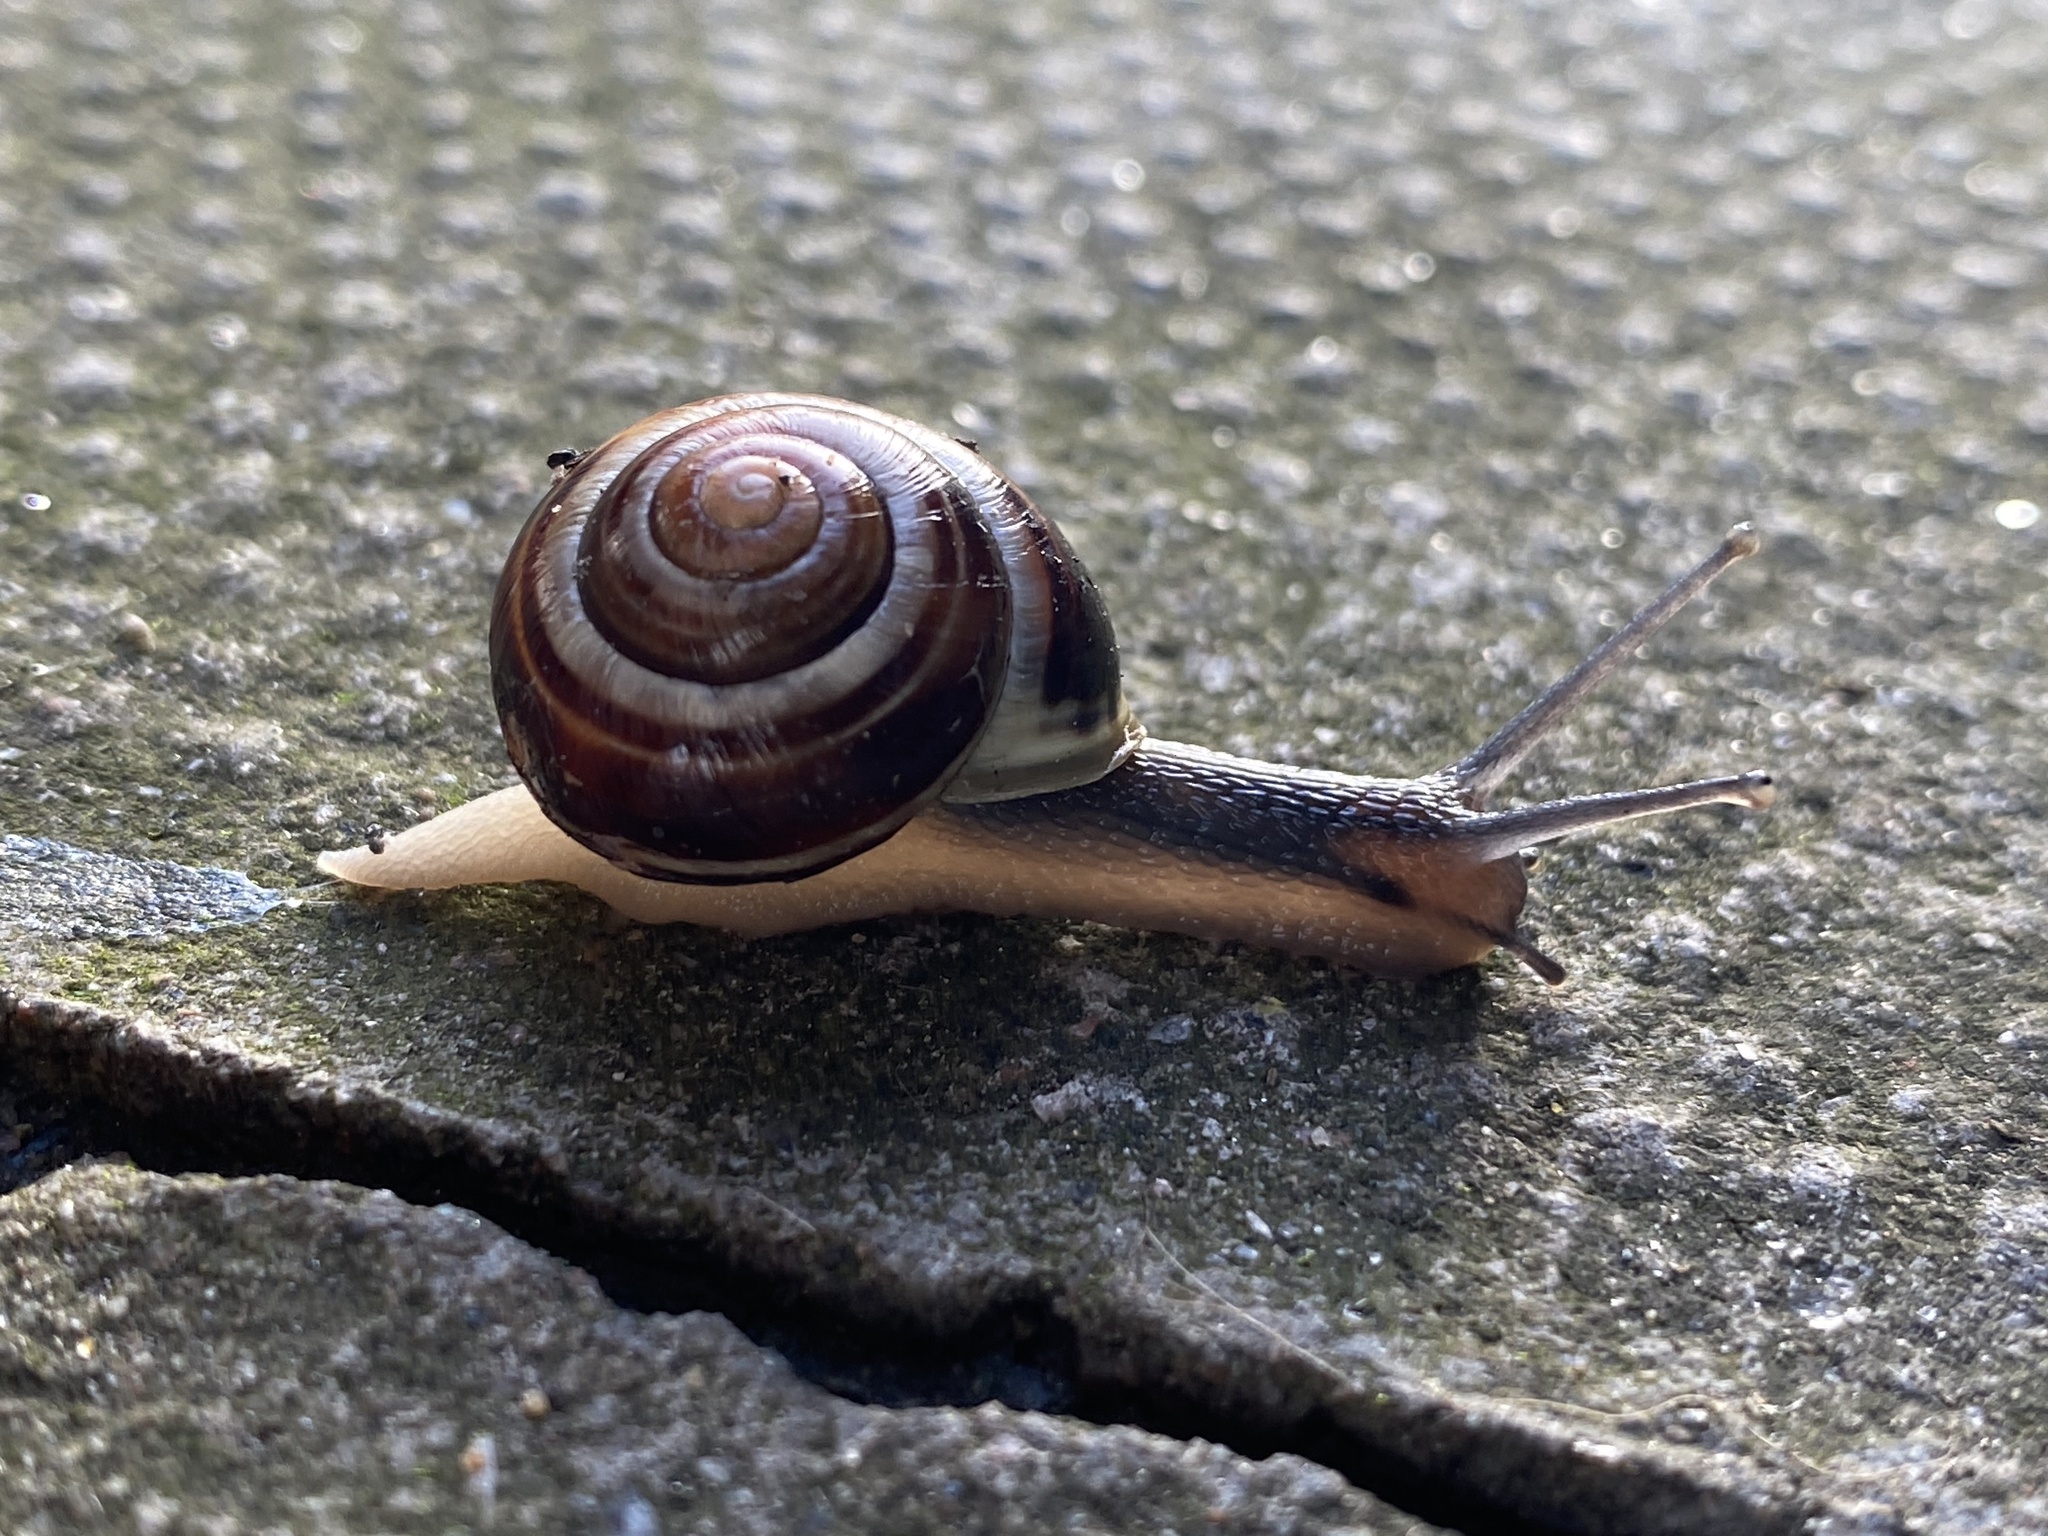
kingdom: Animalia
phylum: Mollusca
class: Gastropoda
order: Stylommatophora
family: Helicidae
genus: Cepaea
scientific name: Cepaea hortensis
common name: White-lip gardensnail
